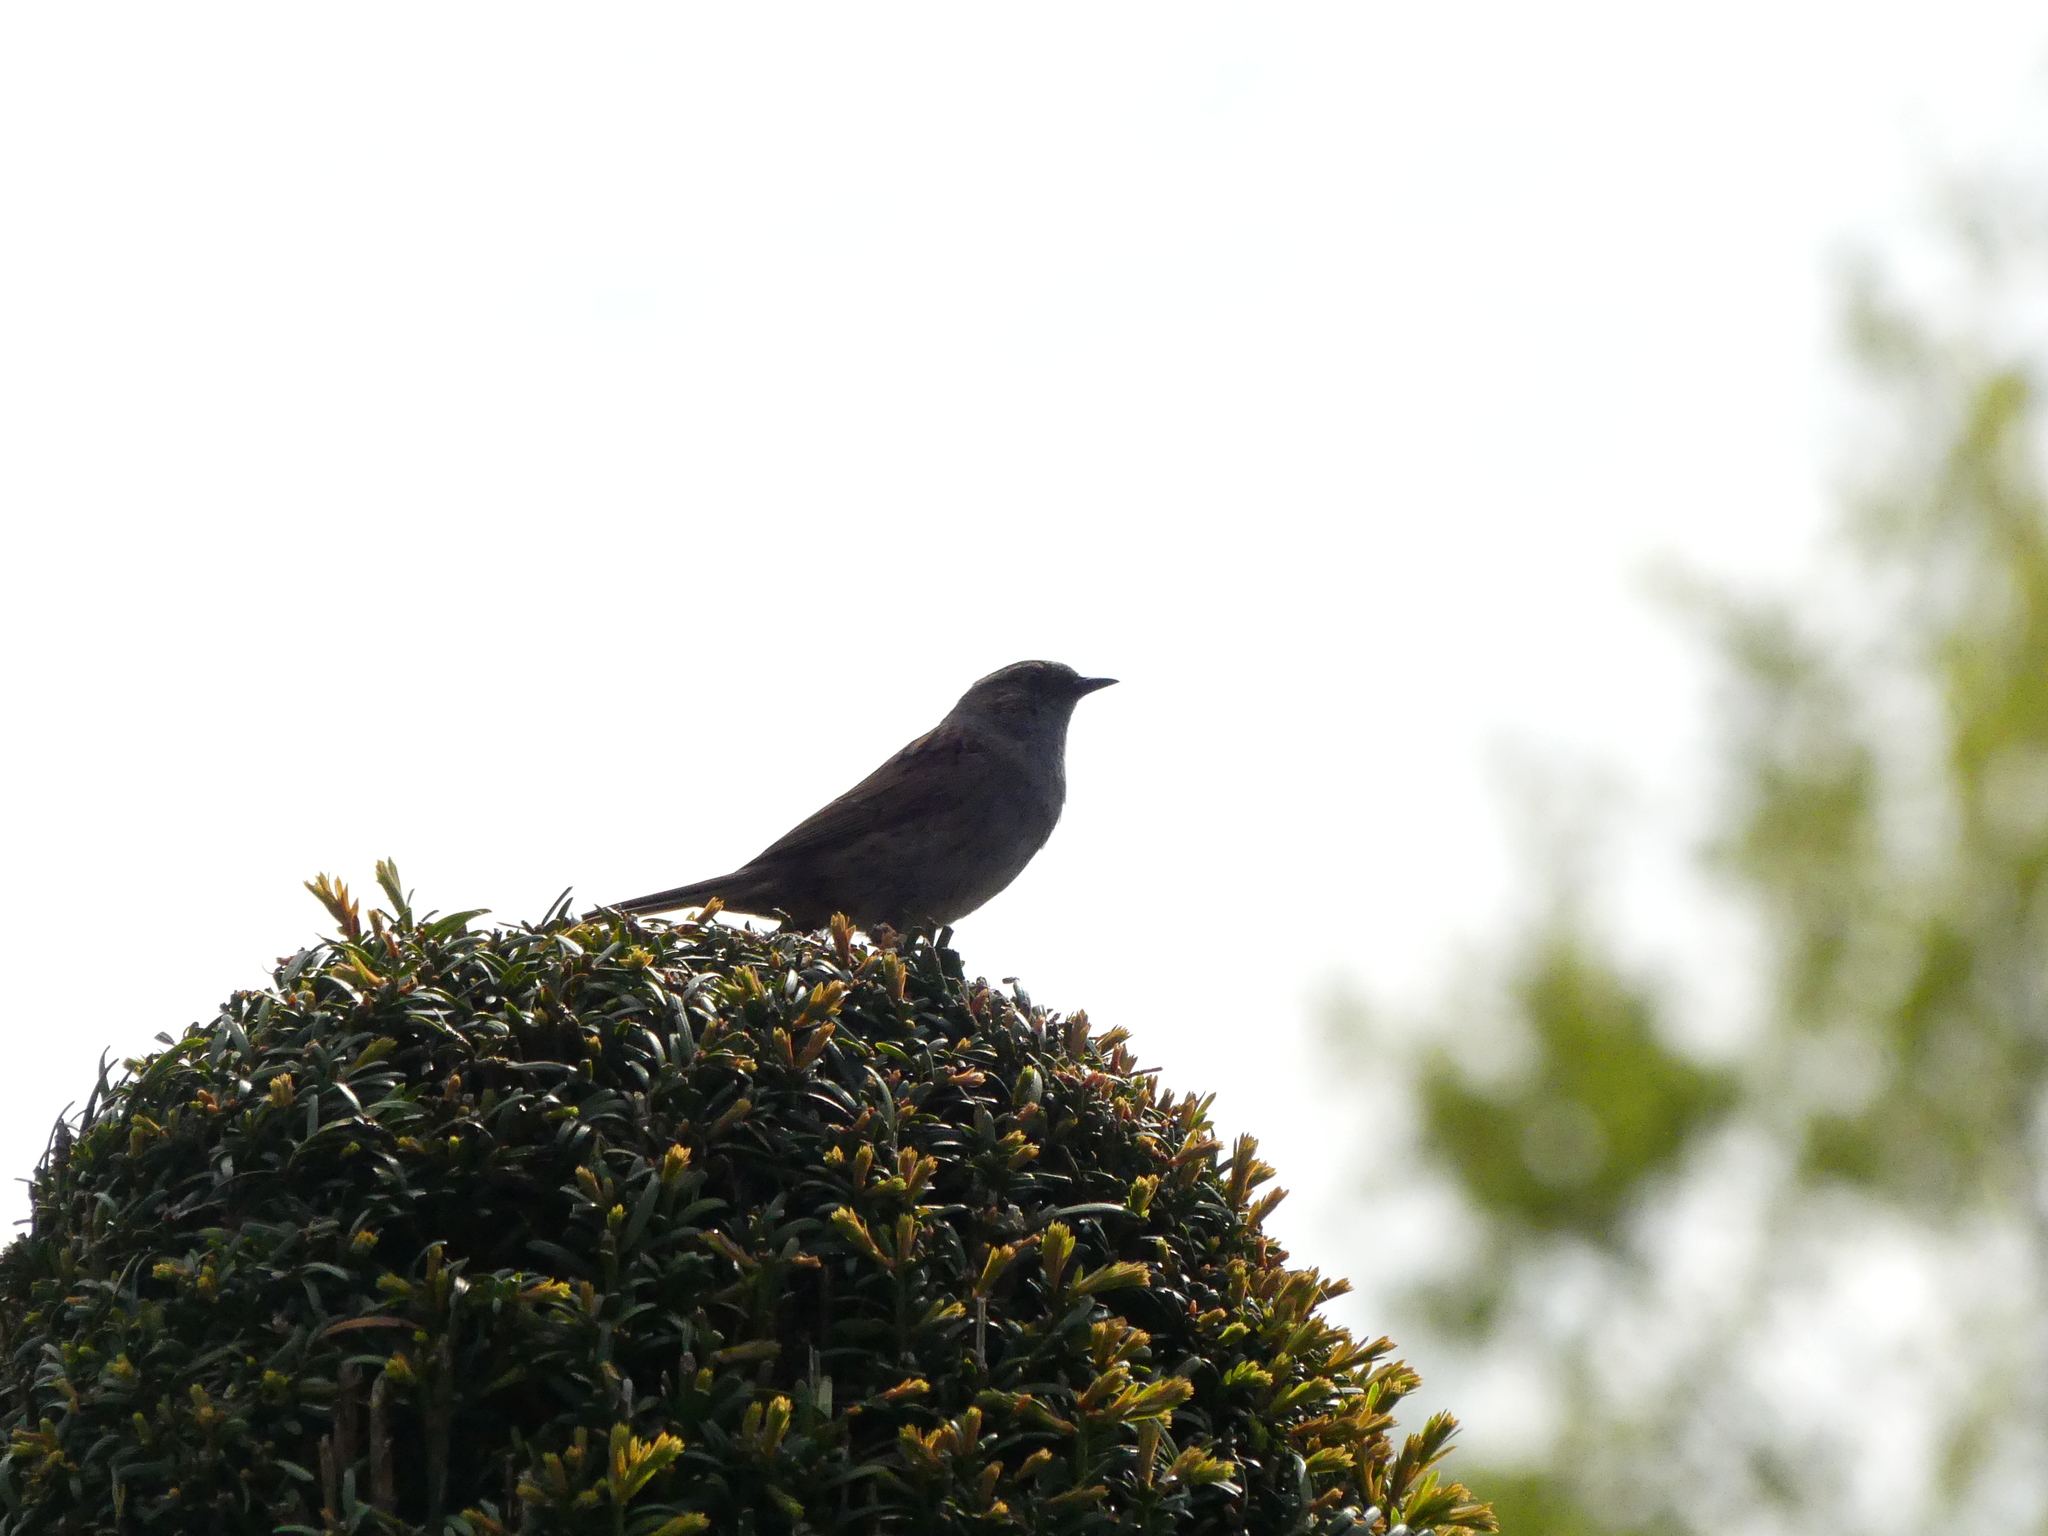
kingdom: Animalia
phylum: Chordata
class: Aves
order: Passeriformes
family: Prunellidae
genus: Prunella
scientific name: Prunella modularis
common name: Dunnock
